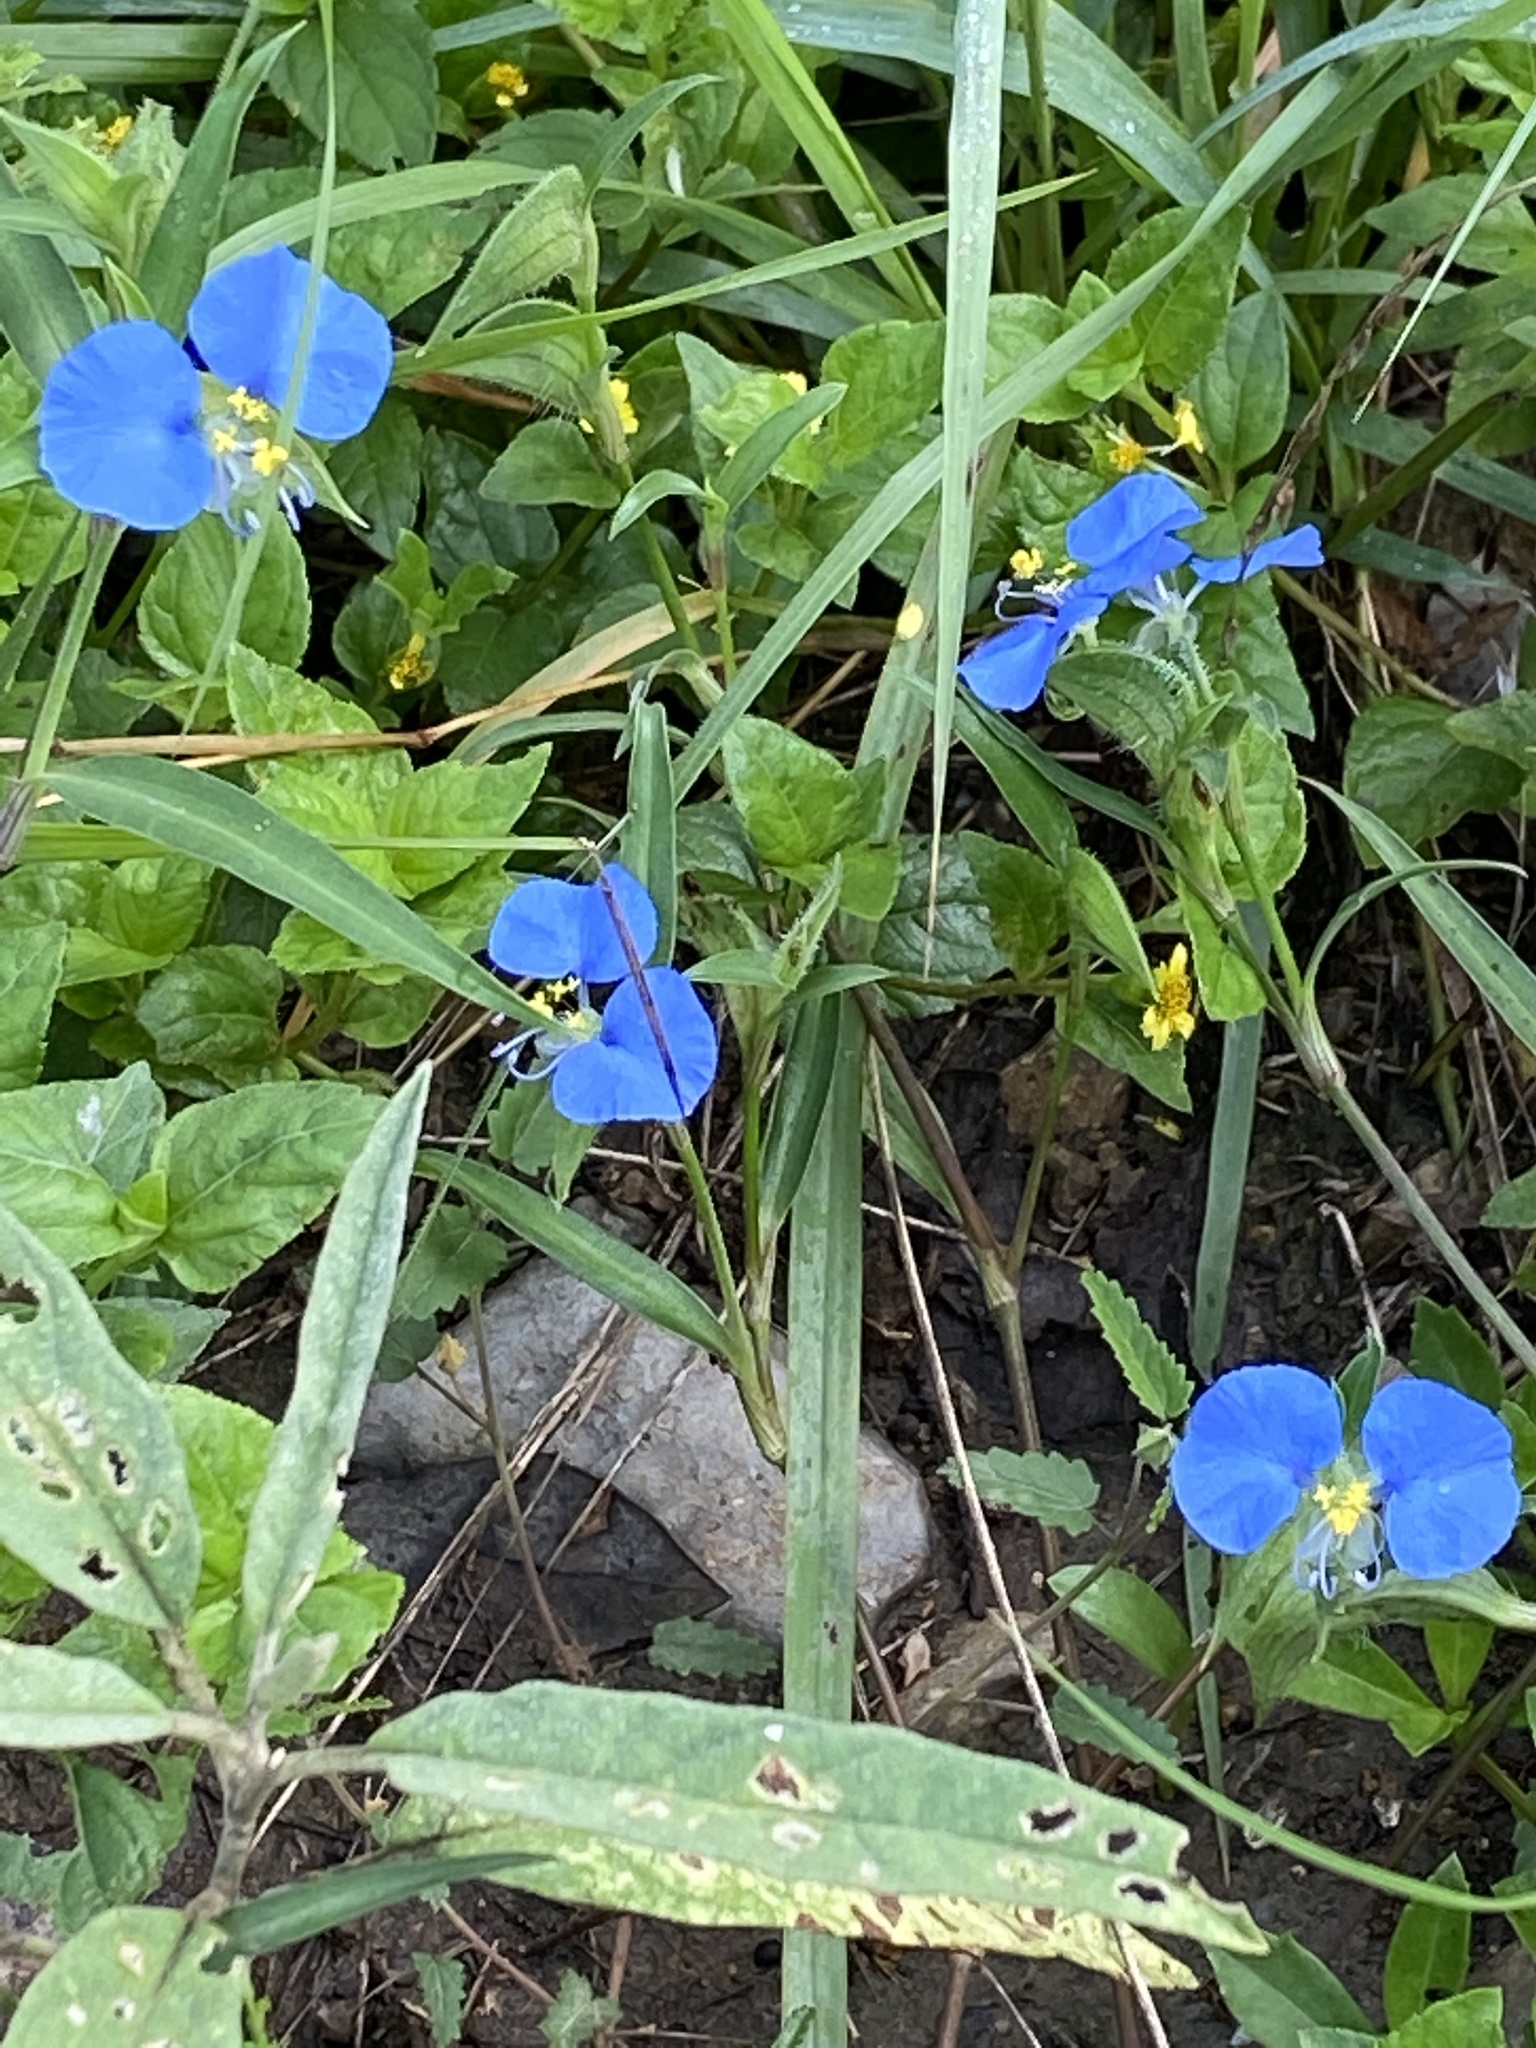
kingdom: Plantae
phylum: Tracheophyta
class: Liliopsida
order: Commelinales
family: Commelinaceae
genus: Commelina
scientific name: Commelina erecta
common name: Blousel blommetjie
